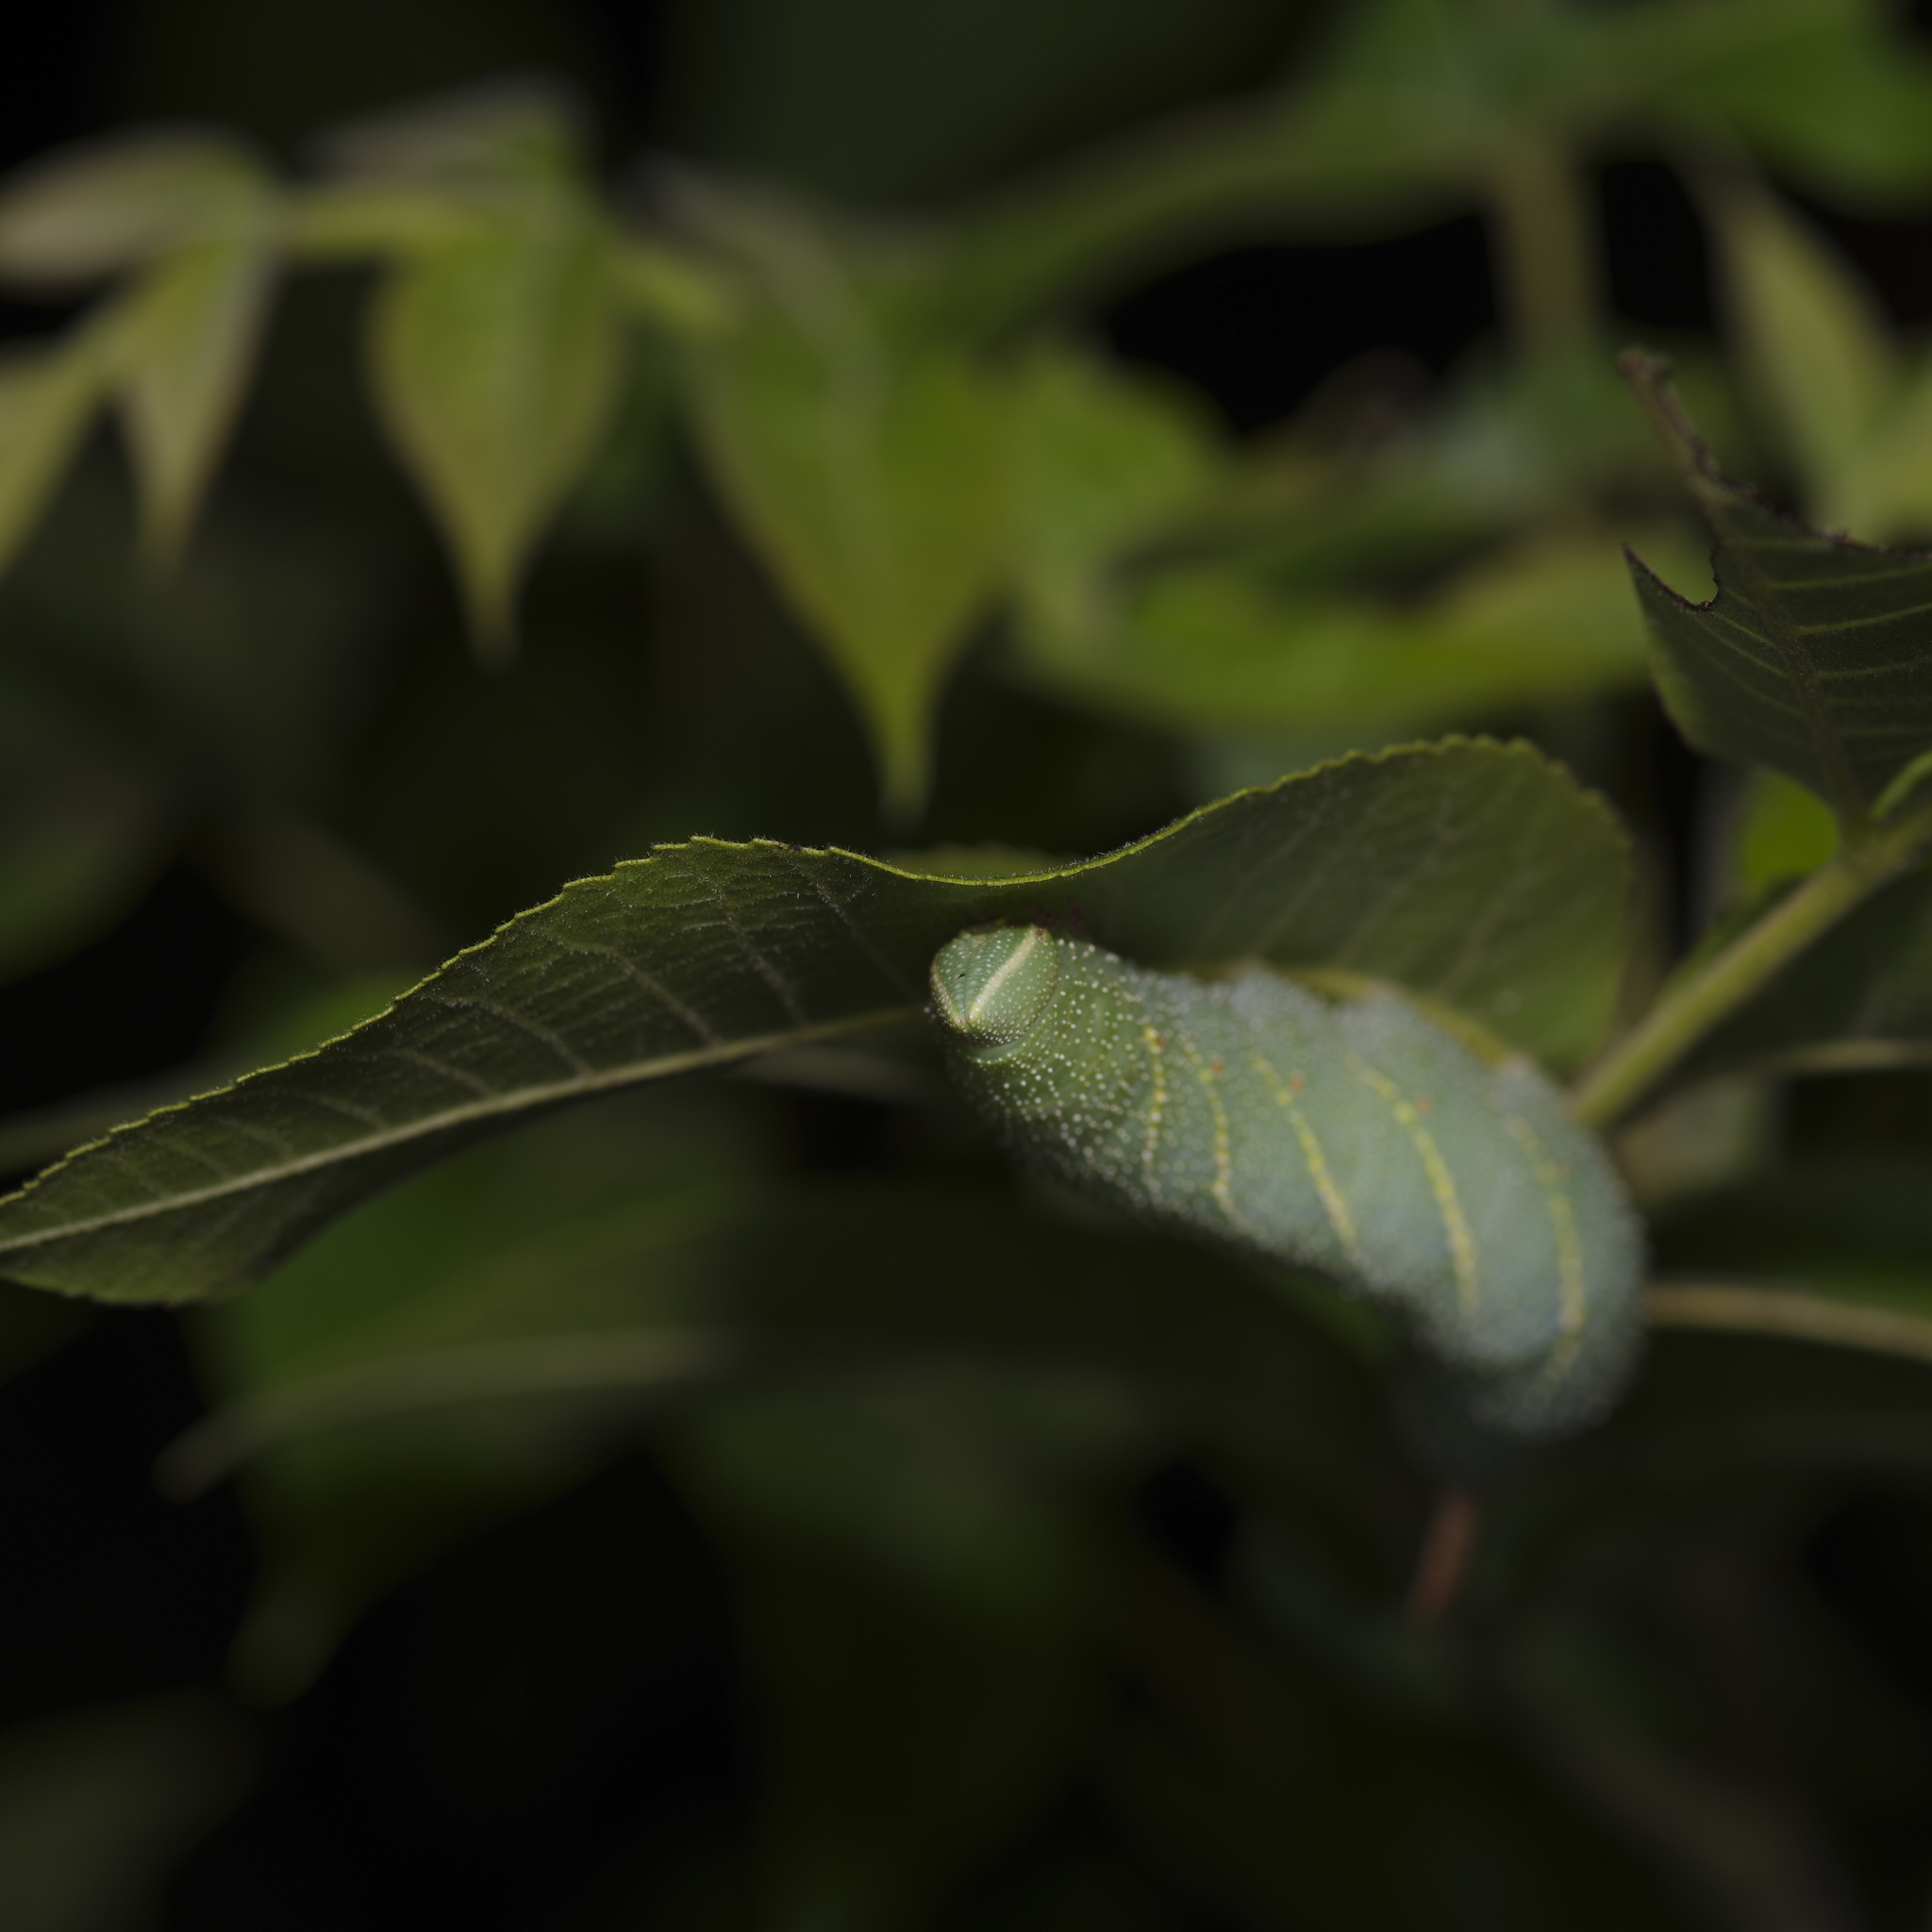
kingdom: Animalia
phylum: Arthropoda
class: Insecta
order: Lepidoptera
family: Sphingidae
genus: Amorpha
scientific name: Amorpha juglandis
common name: Walnut sphinx
